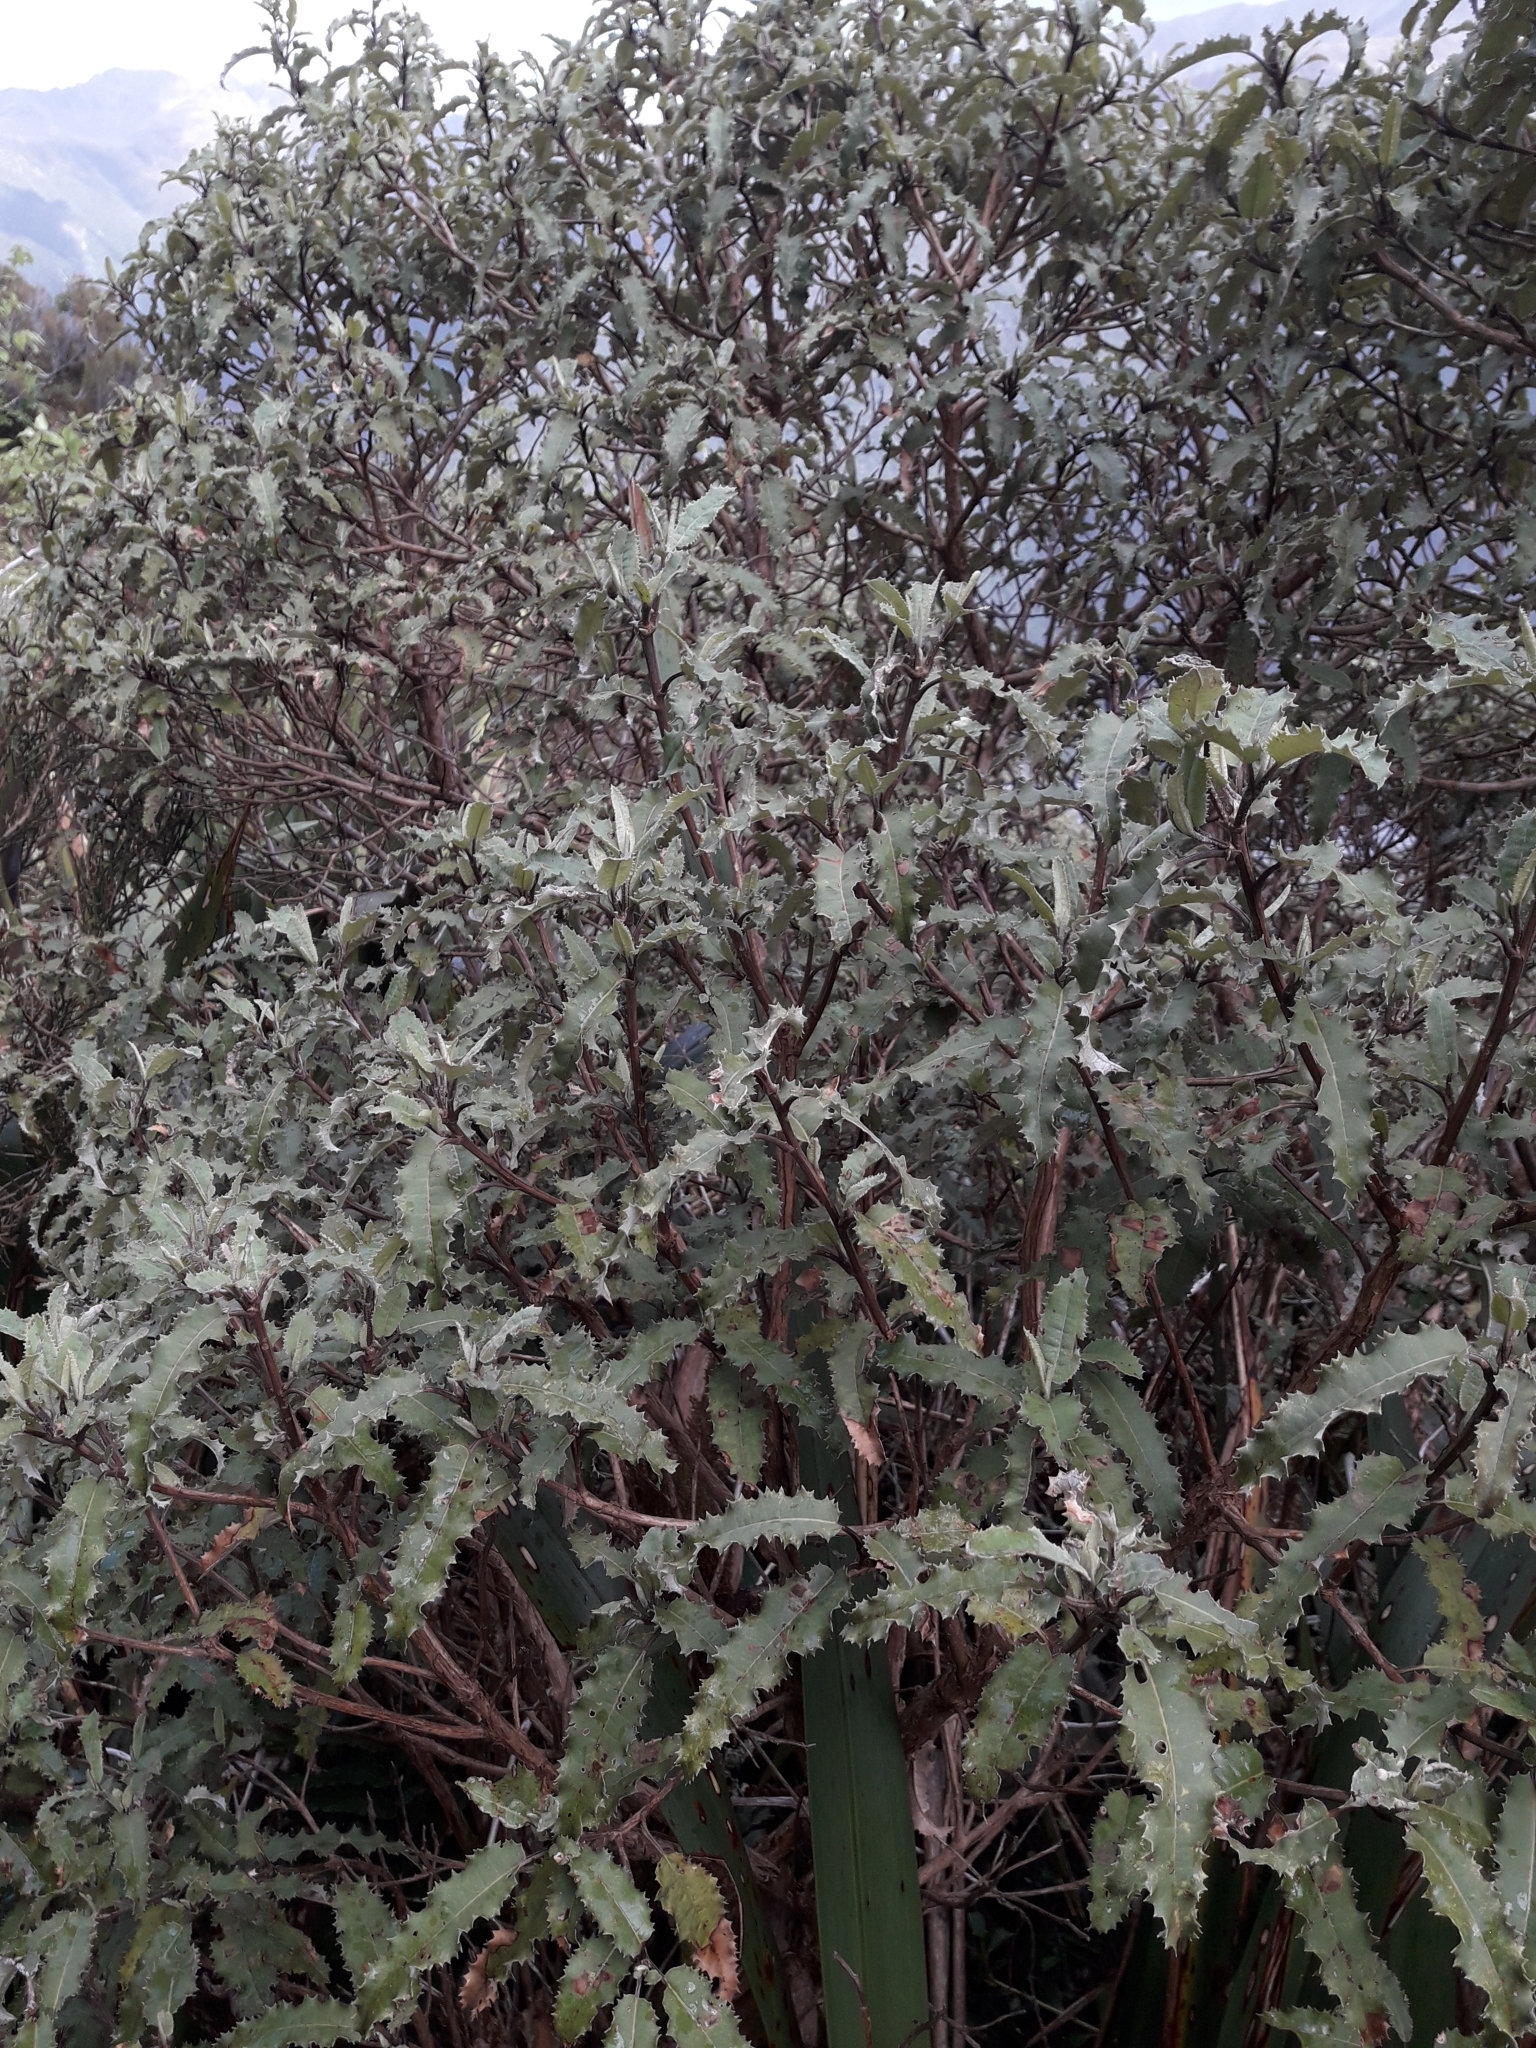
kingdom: Plantae
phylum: Tracheophyta
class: Magnoliopsida
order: Asterales
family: Asteraceae
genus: Olearia
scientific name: Olearia ilicifolia
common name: Maori-holly
